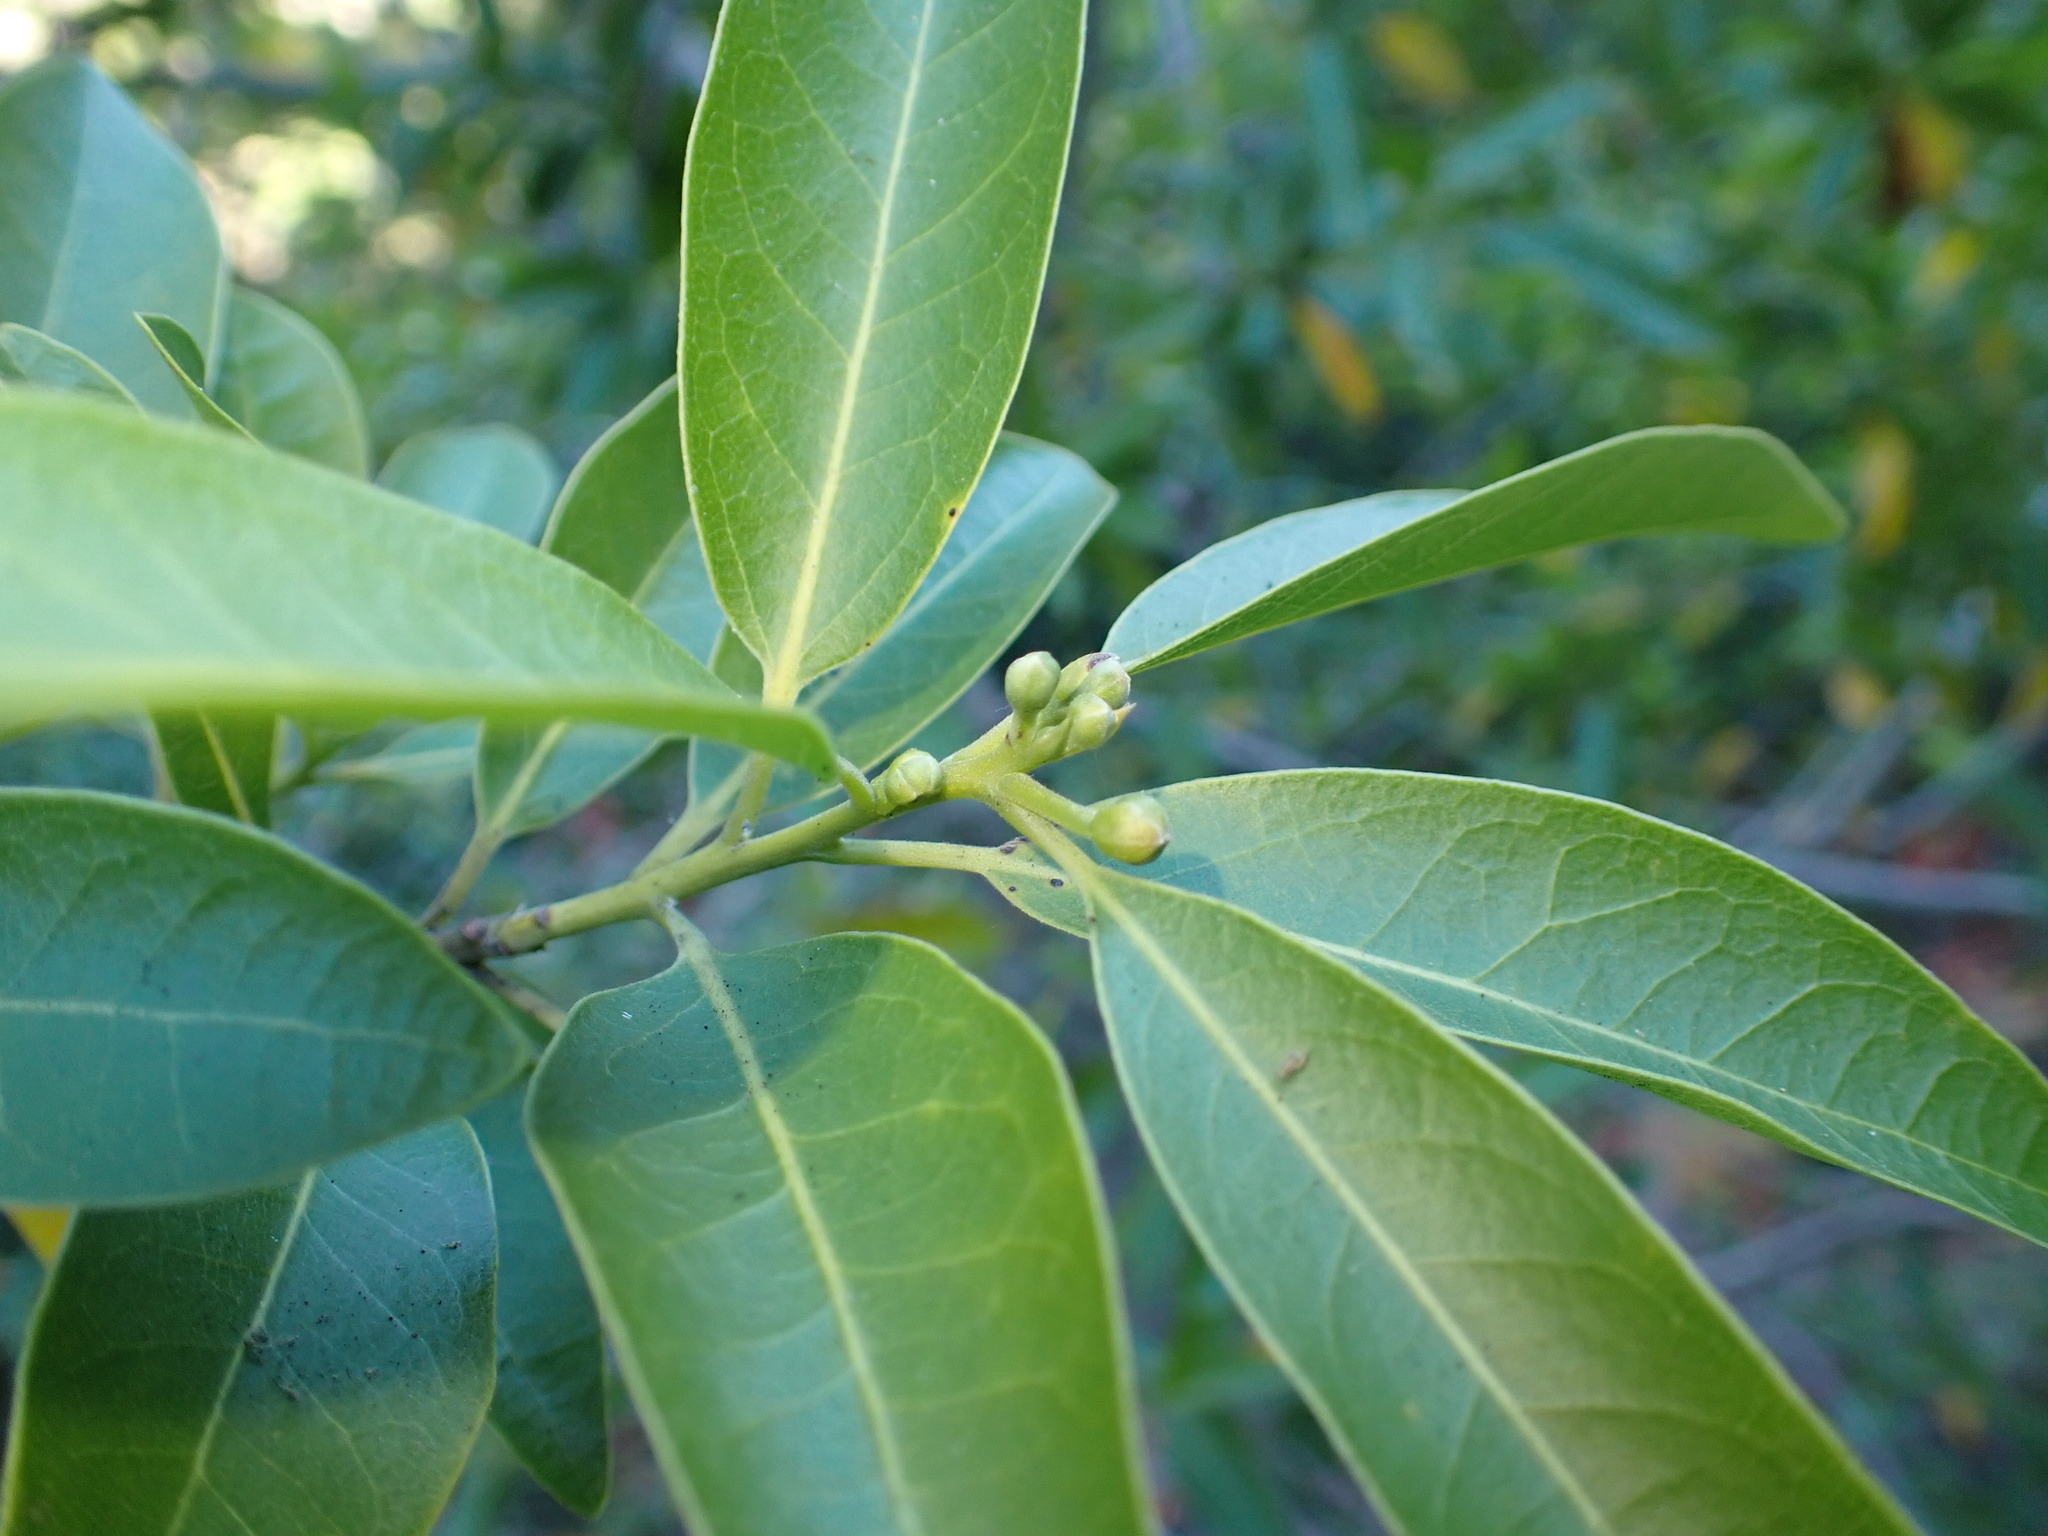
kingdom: Plantae
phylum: Tracheophyta
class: Magnoliopsida
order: Laurales
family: Lauraceae
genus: Umbellularia
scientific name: Umbellularia californica
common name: California bay
